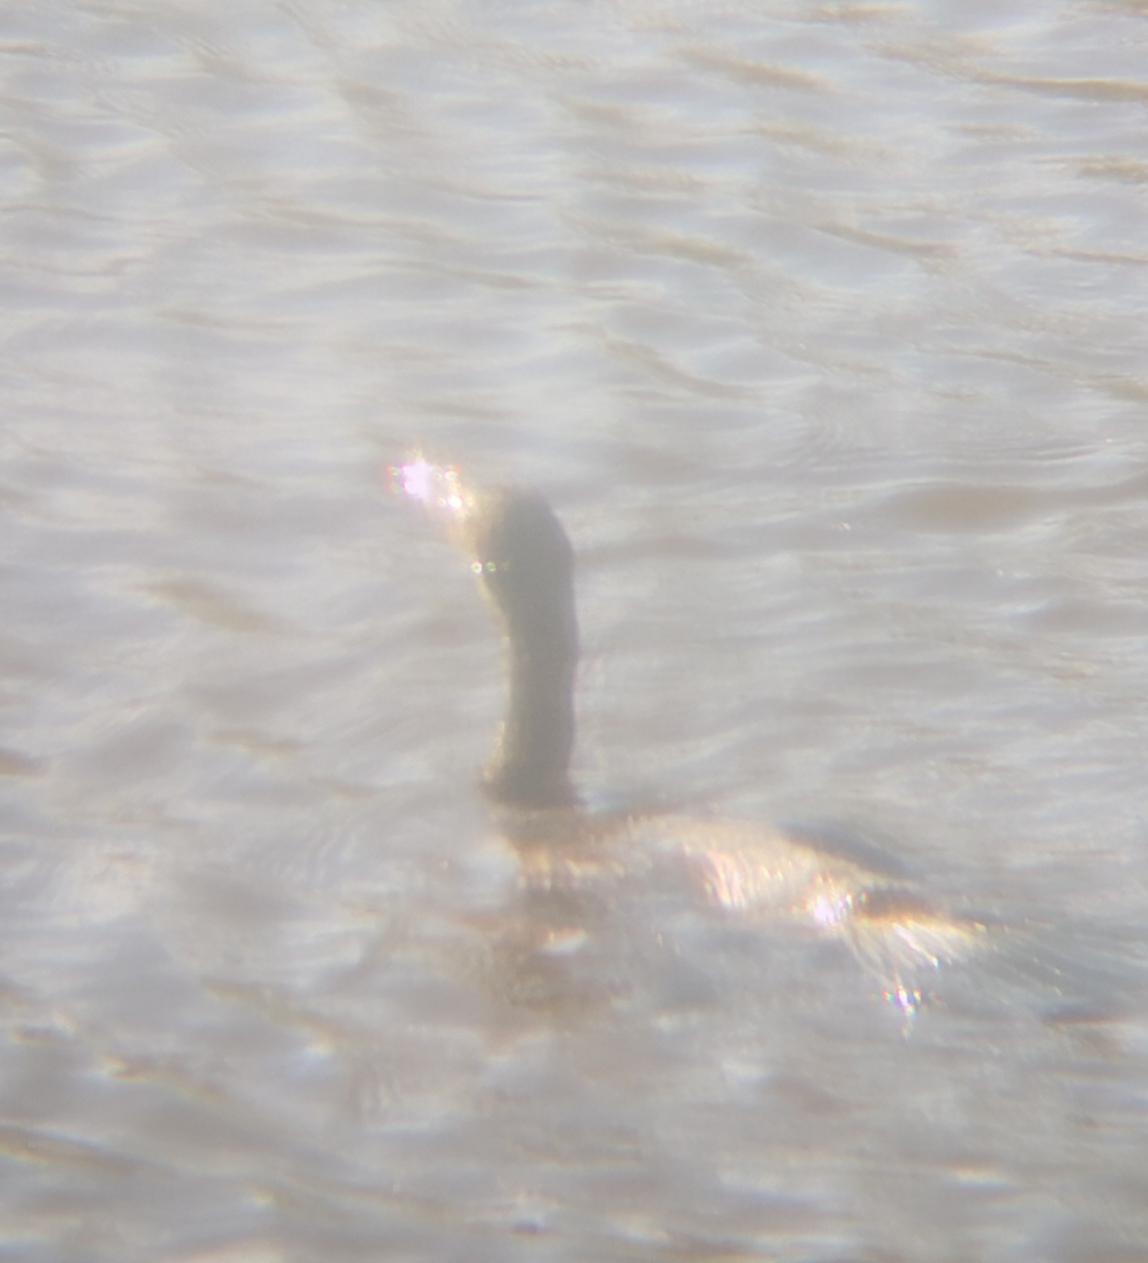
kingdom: Animalia
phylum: Chordata
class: Aves
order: Suliformes
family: Phalacrocoracidae
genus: Phalacrocorax
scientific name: Phalacrocorax auritus
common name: Double-crested cormorant
